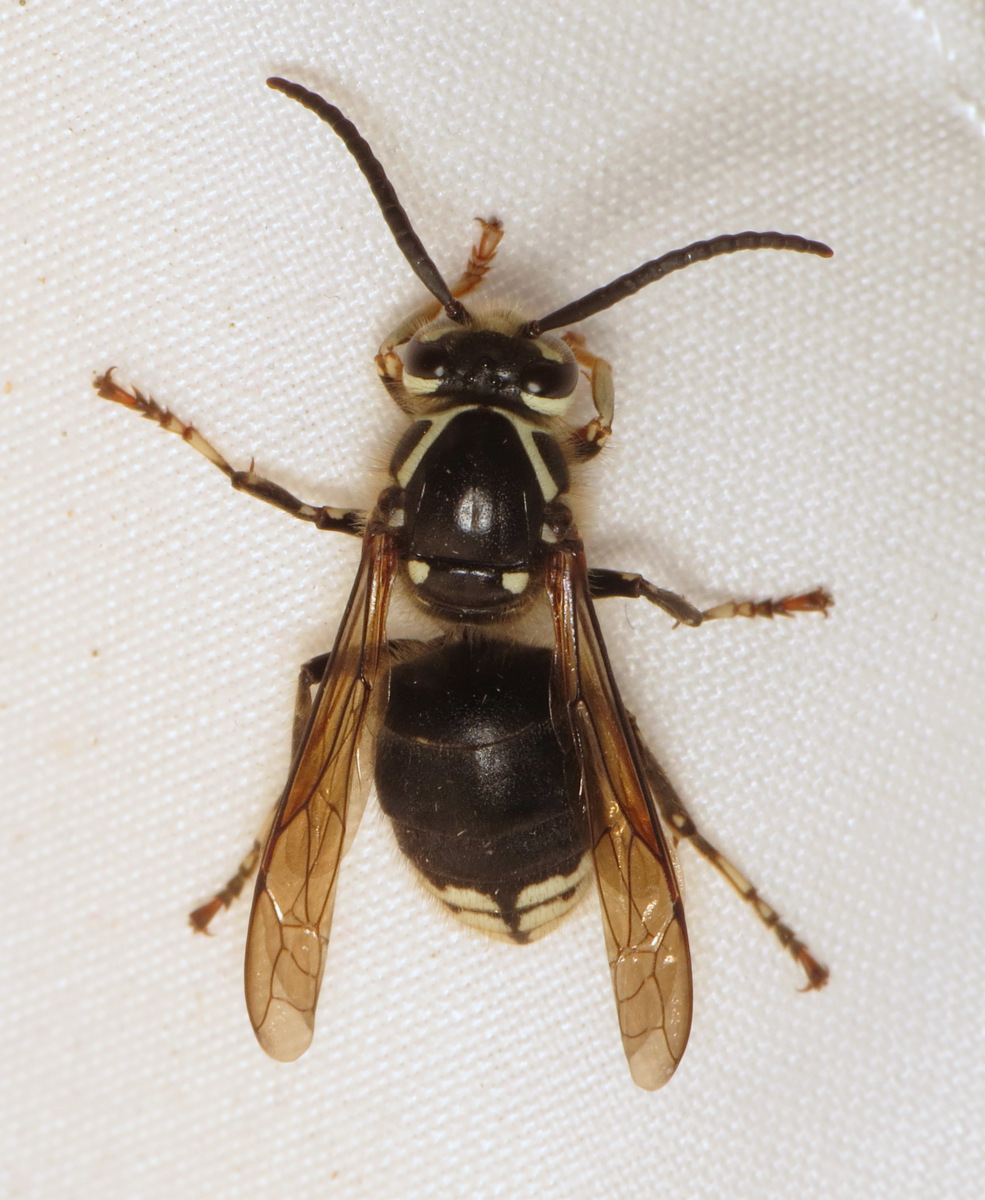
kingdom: Animalia
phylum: Arthropoda
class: Insecta
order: Hymenoptera
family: Vespidae
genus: Dolichovespula
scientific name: Dolichovespula maculata
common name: Bald-faced hornet
